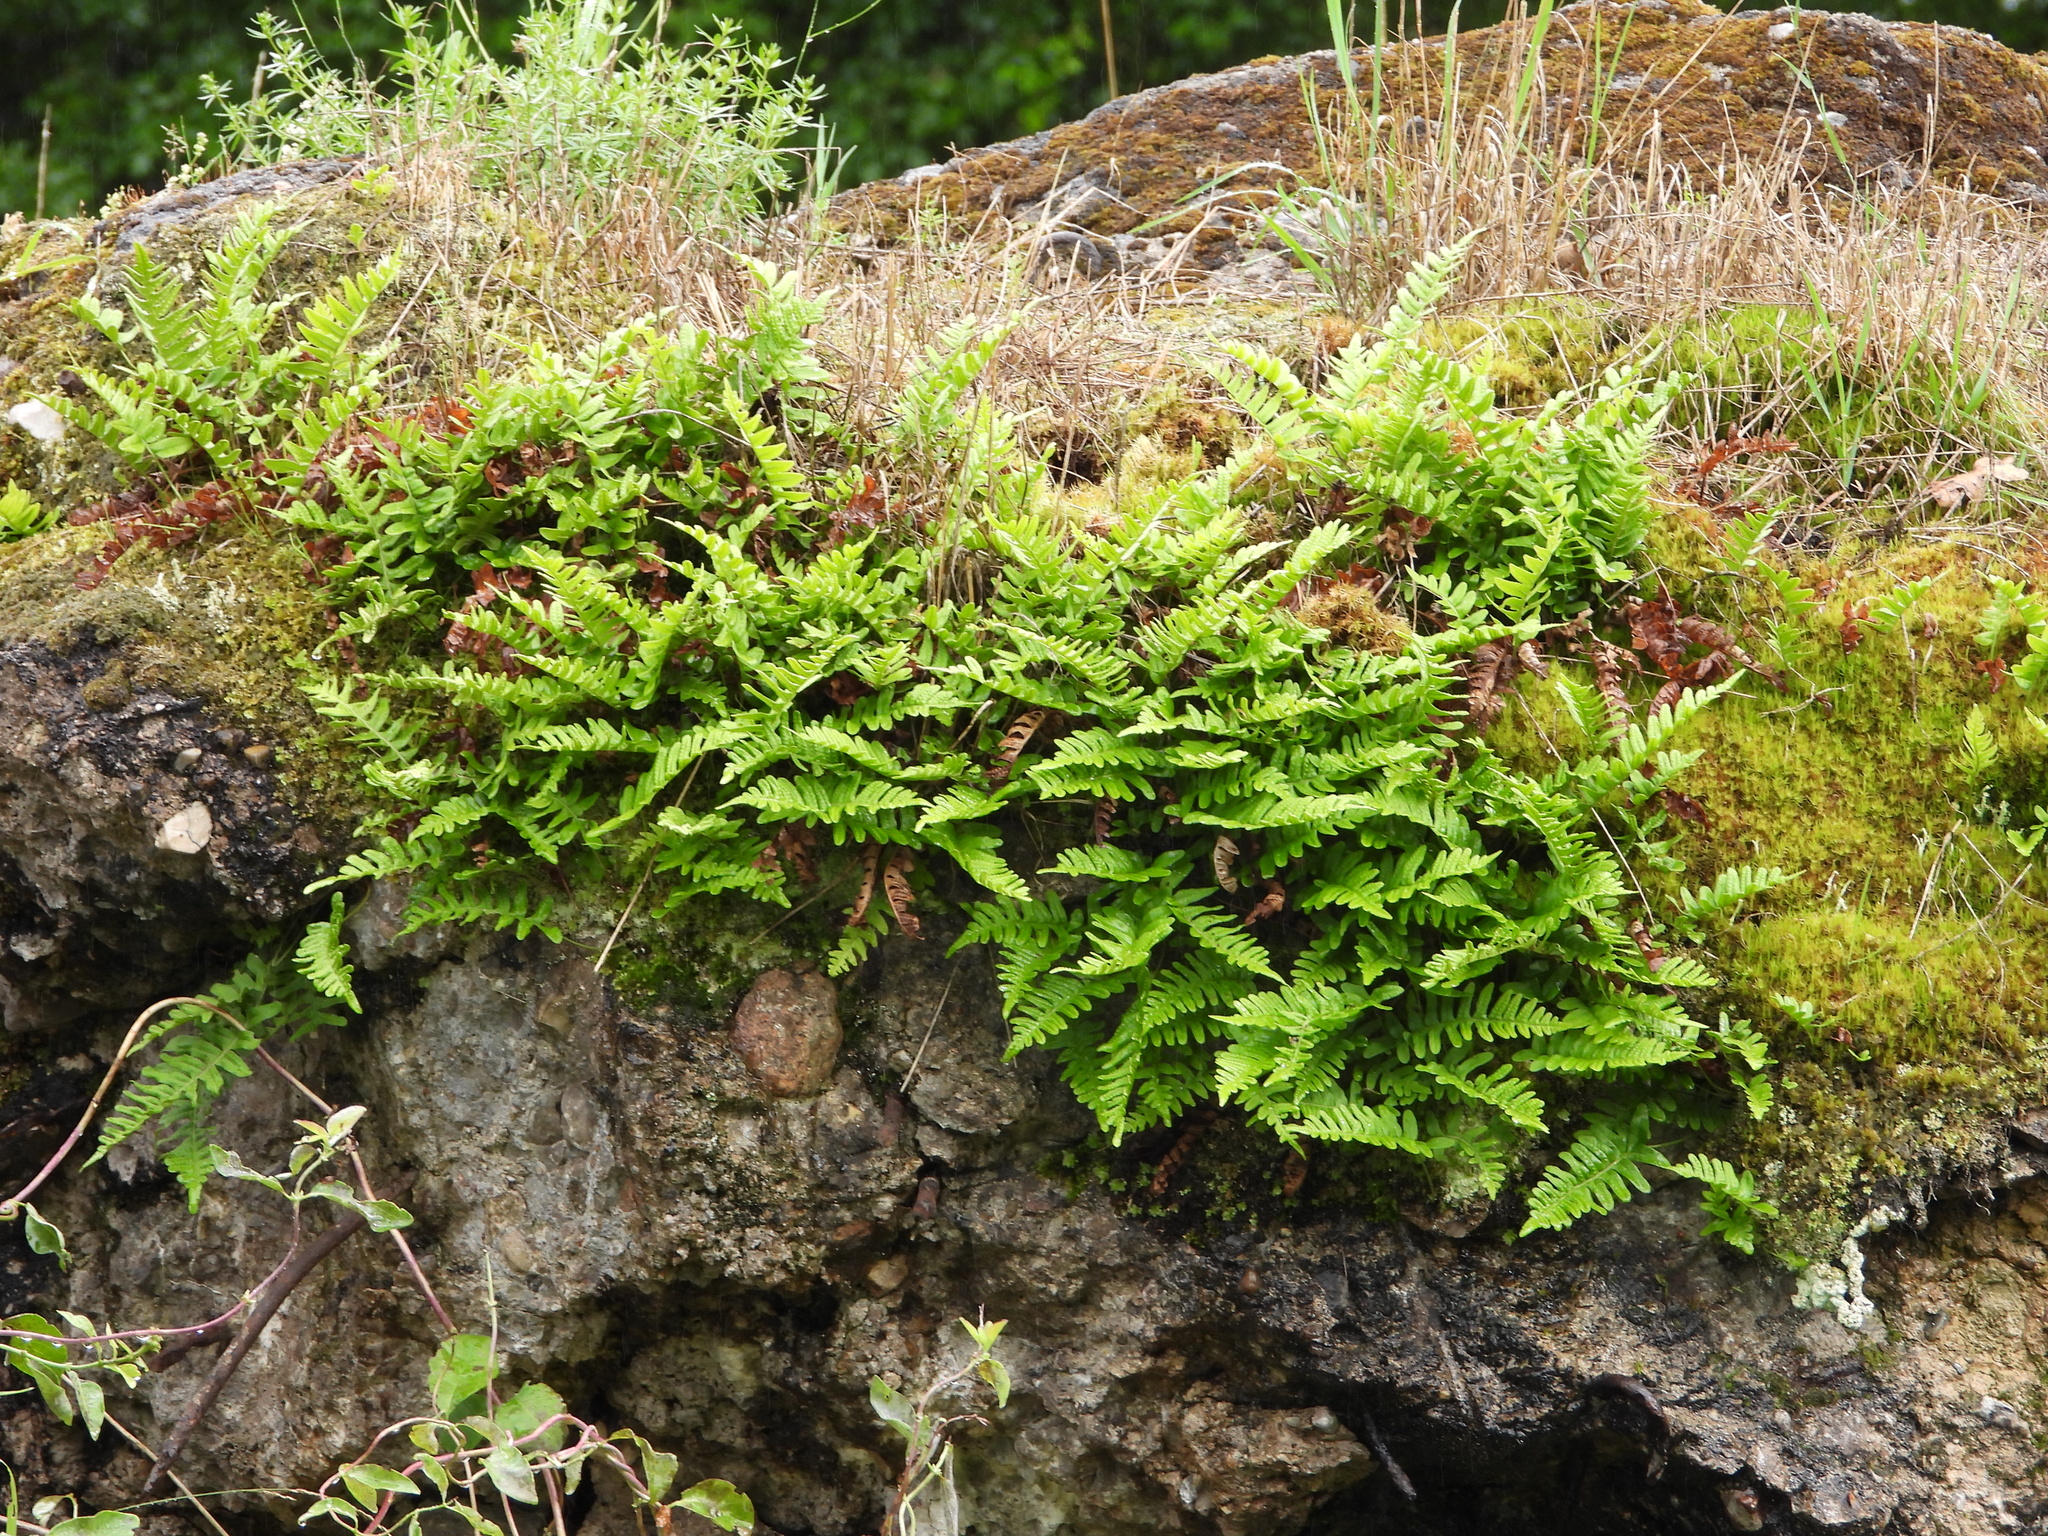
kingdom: Plantae
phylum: Tracheophyta
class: Polypodiopsida
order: Polypodiales
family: Polypodiaceae
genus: Polypodium
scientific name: Polypodium vulgare
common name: Common polypody
